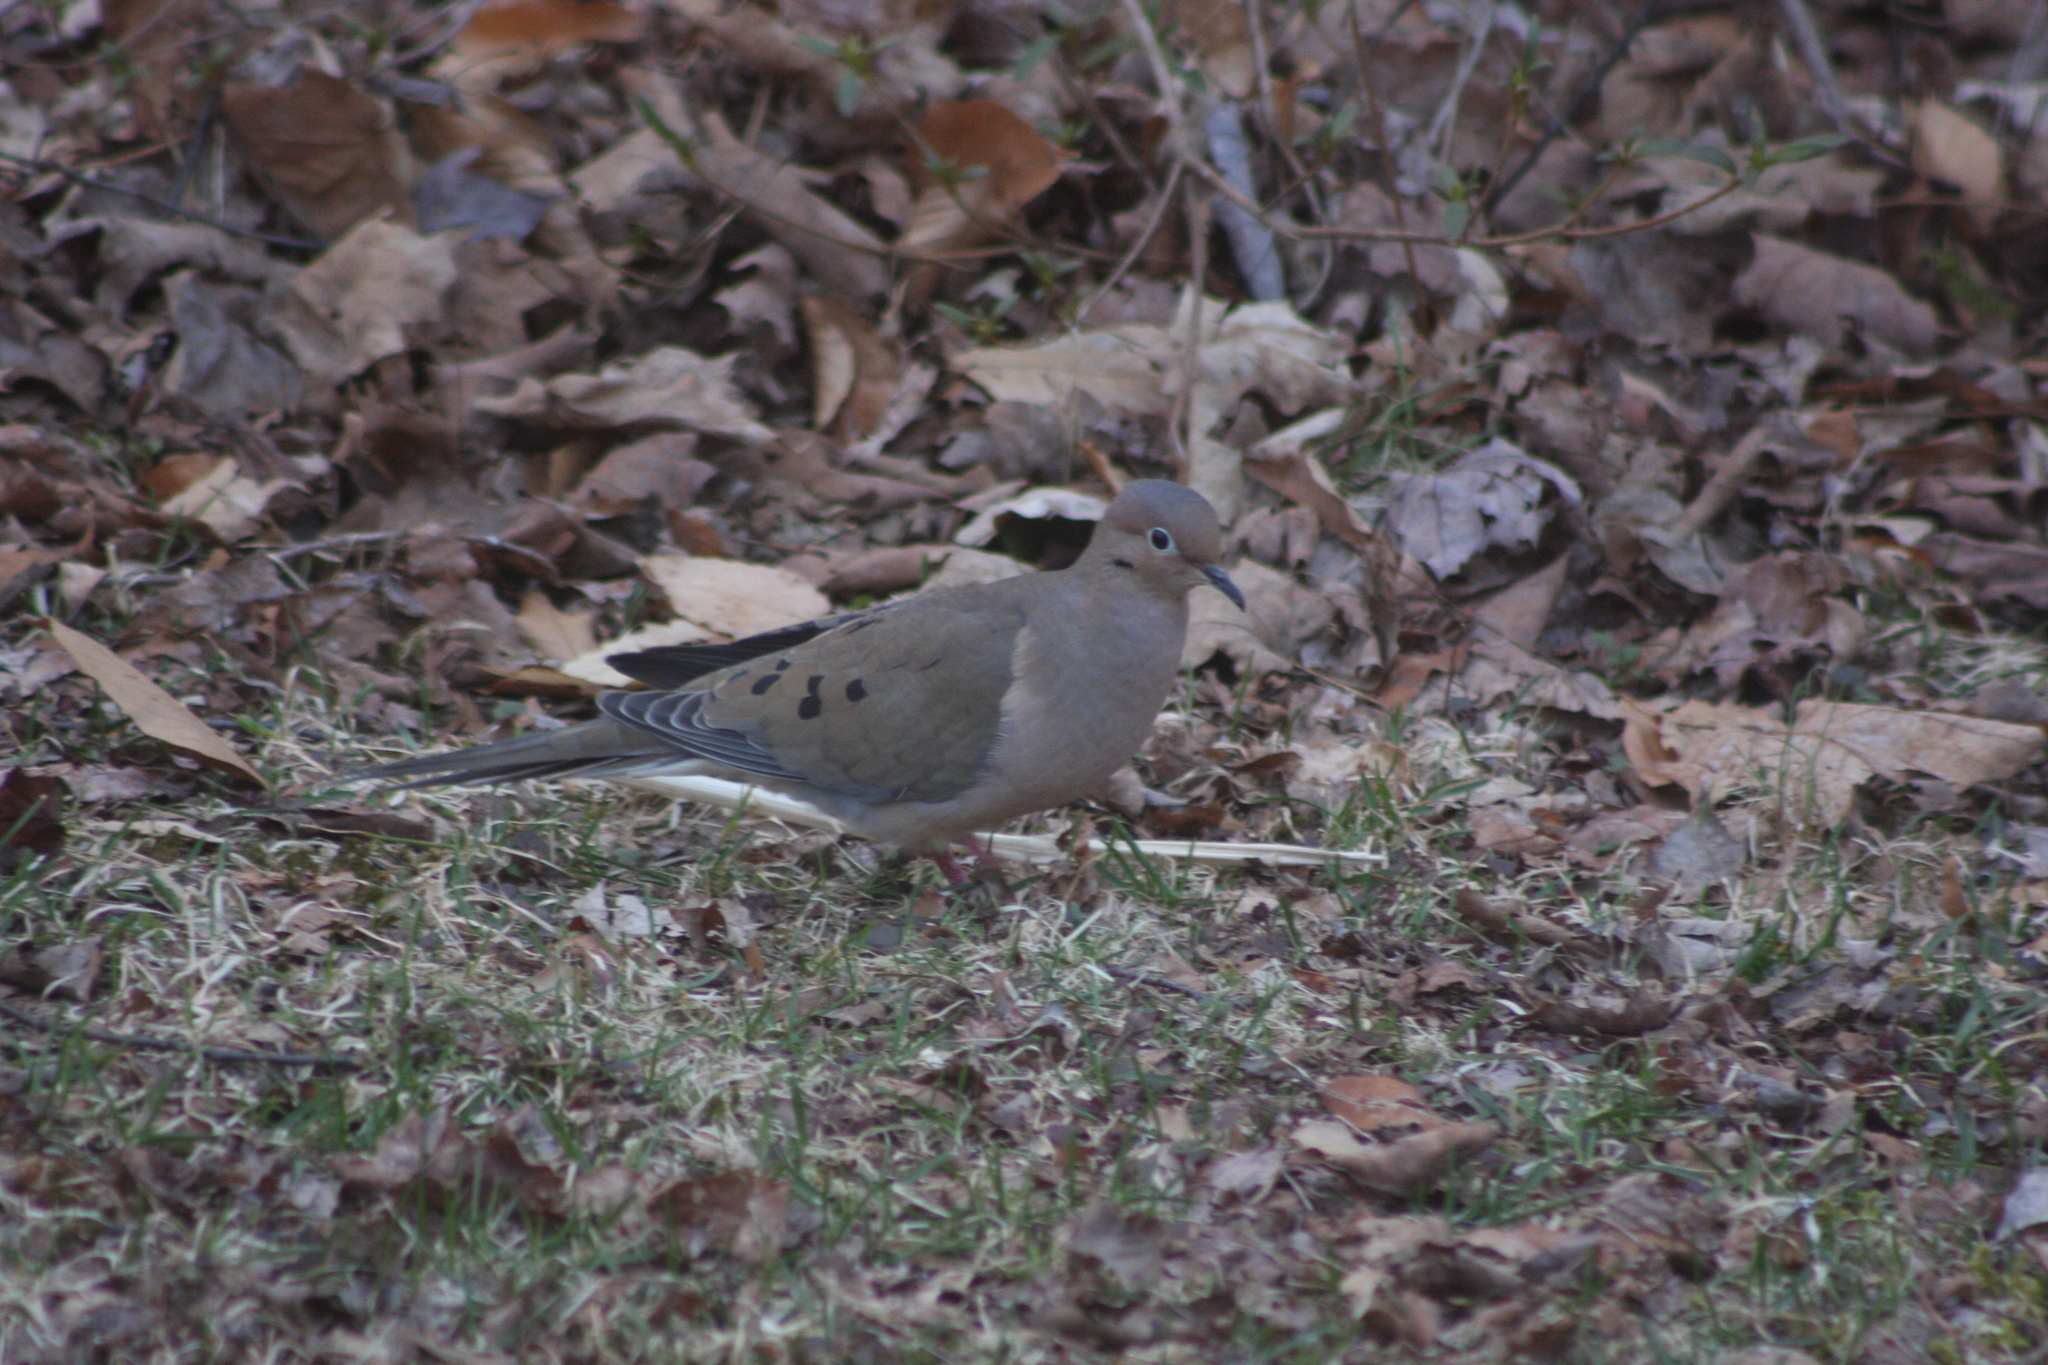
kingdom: Animalia
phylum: Chordata
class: Aves
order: Columbiformes
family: Columbidae
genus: Zenaida
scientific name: Zenaida macroura
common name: Mourning dove
